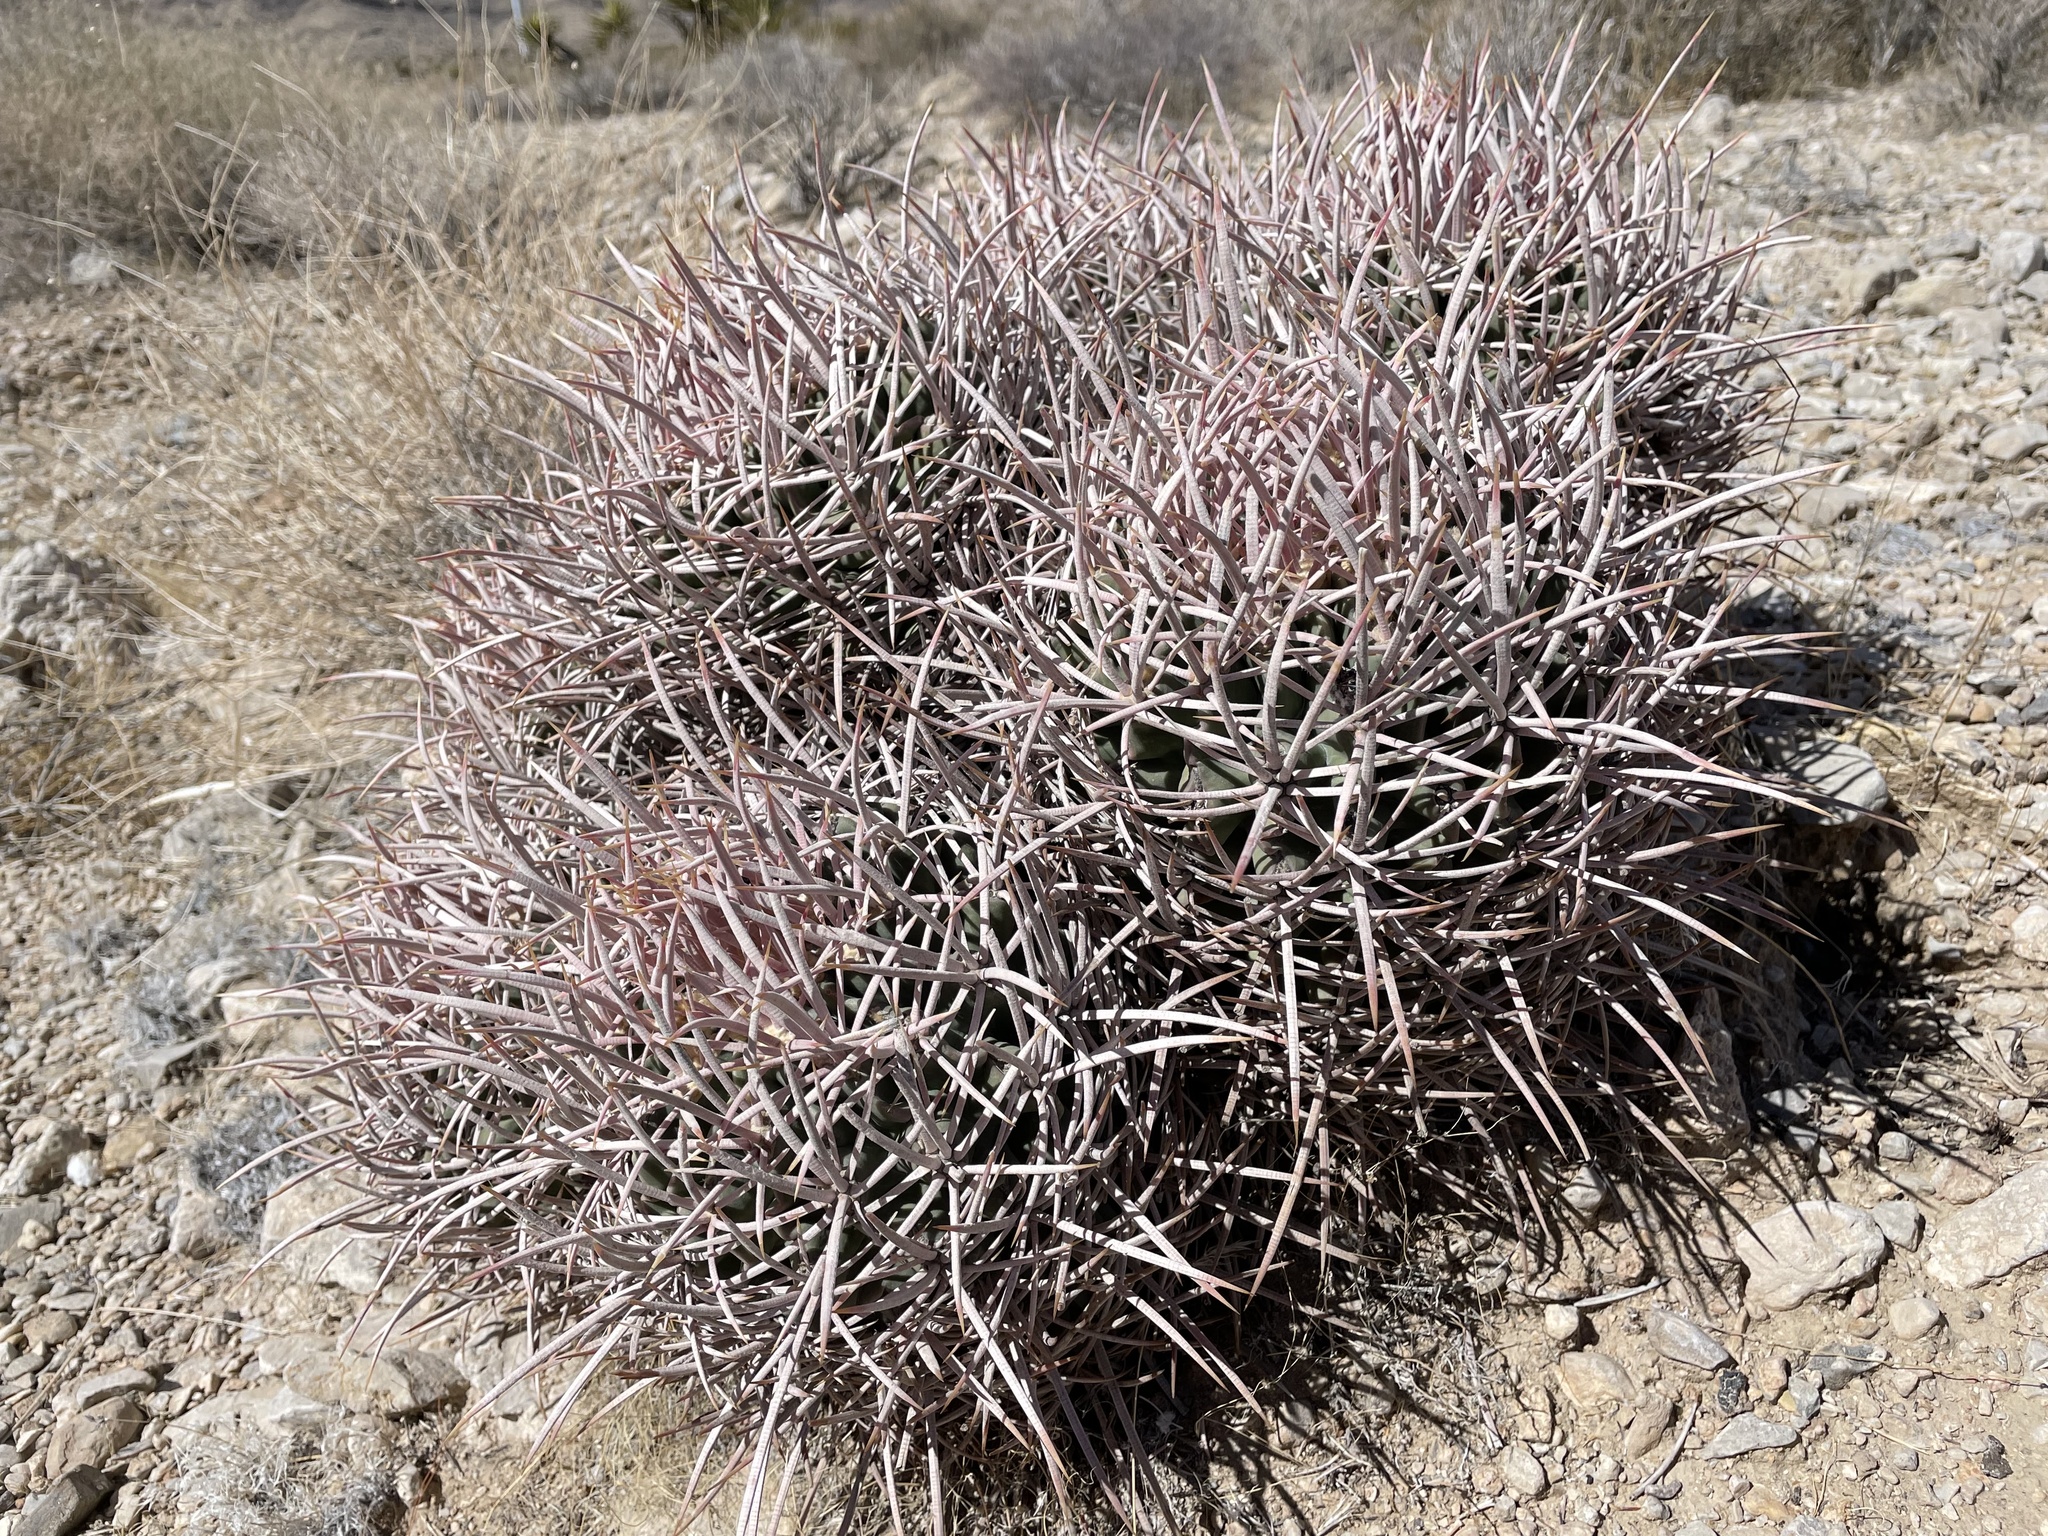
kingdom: Plantae
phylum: Tracheophyta
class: Magnoliopsida
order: Caryophyllales
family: Cactaceae
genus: Echinocactus
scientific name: Echinocactus polycephalus
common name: Cottontop cactus
